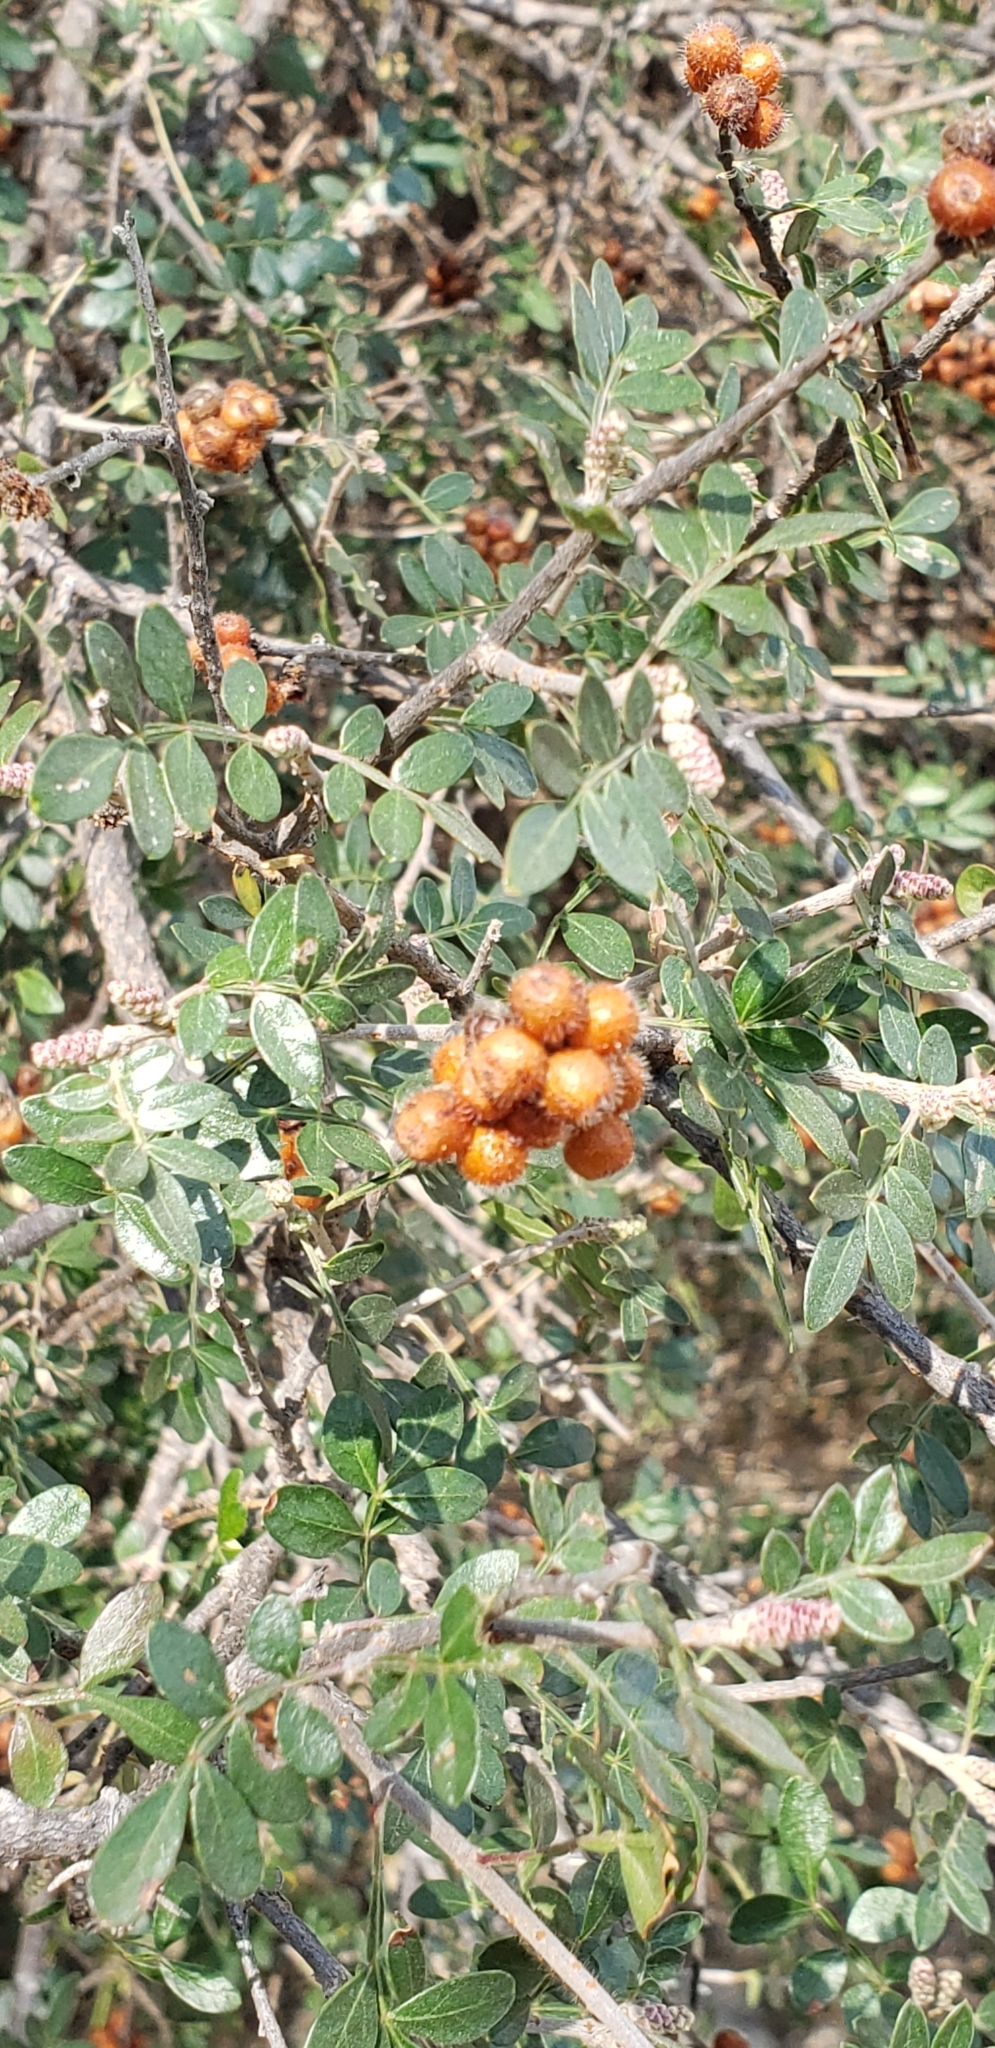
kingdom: Plantae
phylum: Tracheophyta
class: Magnoliopsida
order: Sapindales
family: Anacardiaceae
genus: Rhus
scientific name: Rhus microphylla
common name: Desert sumac
